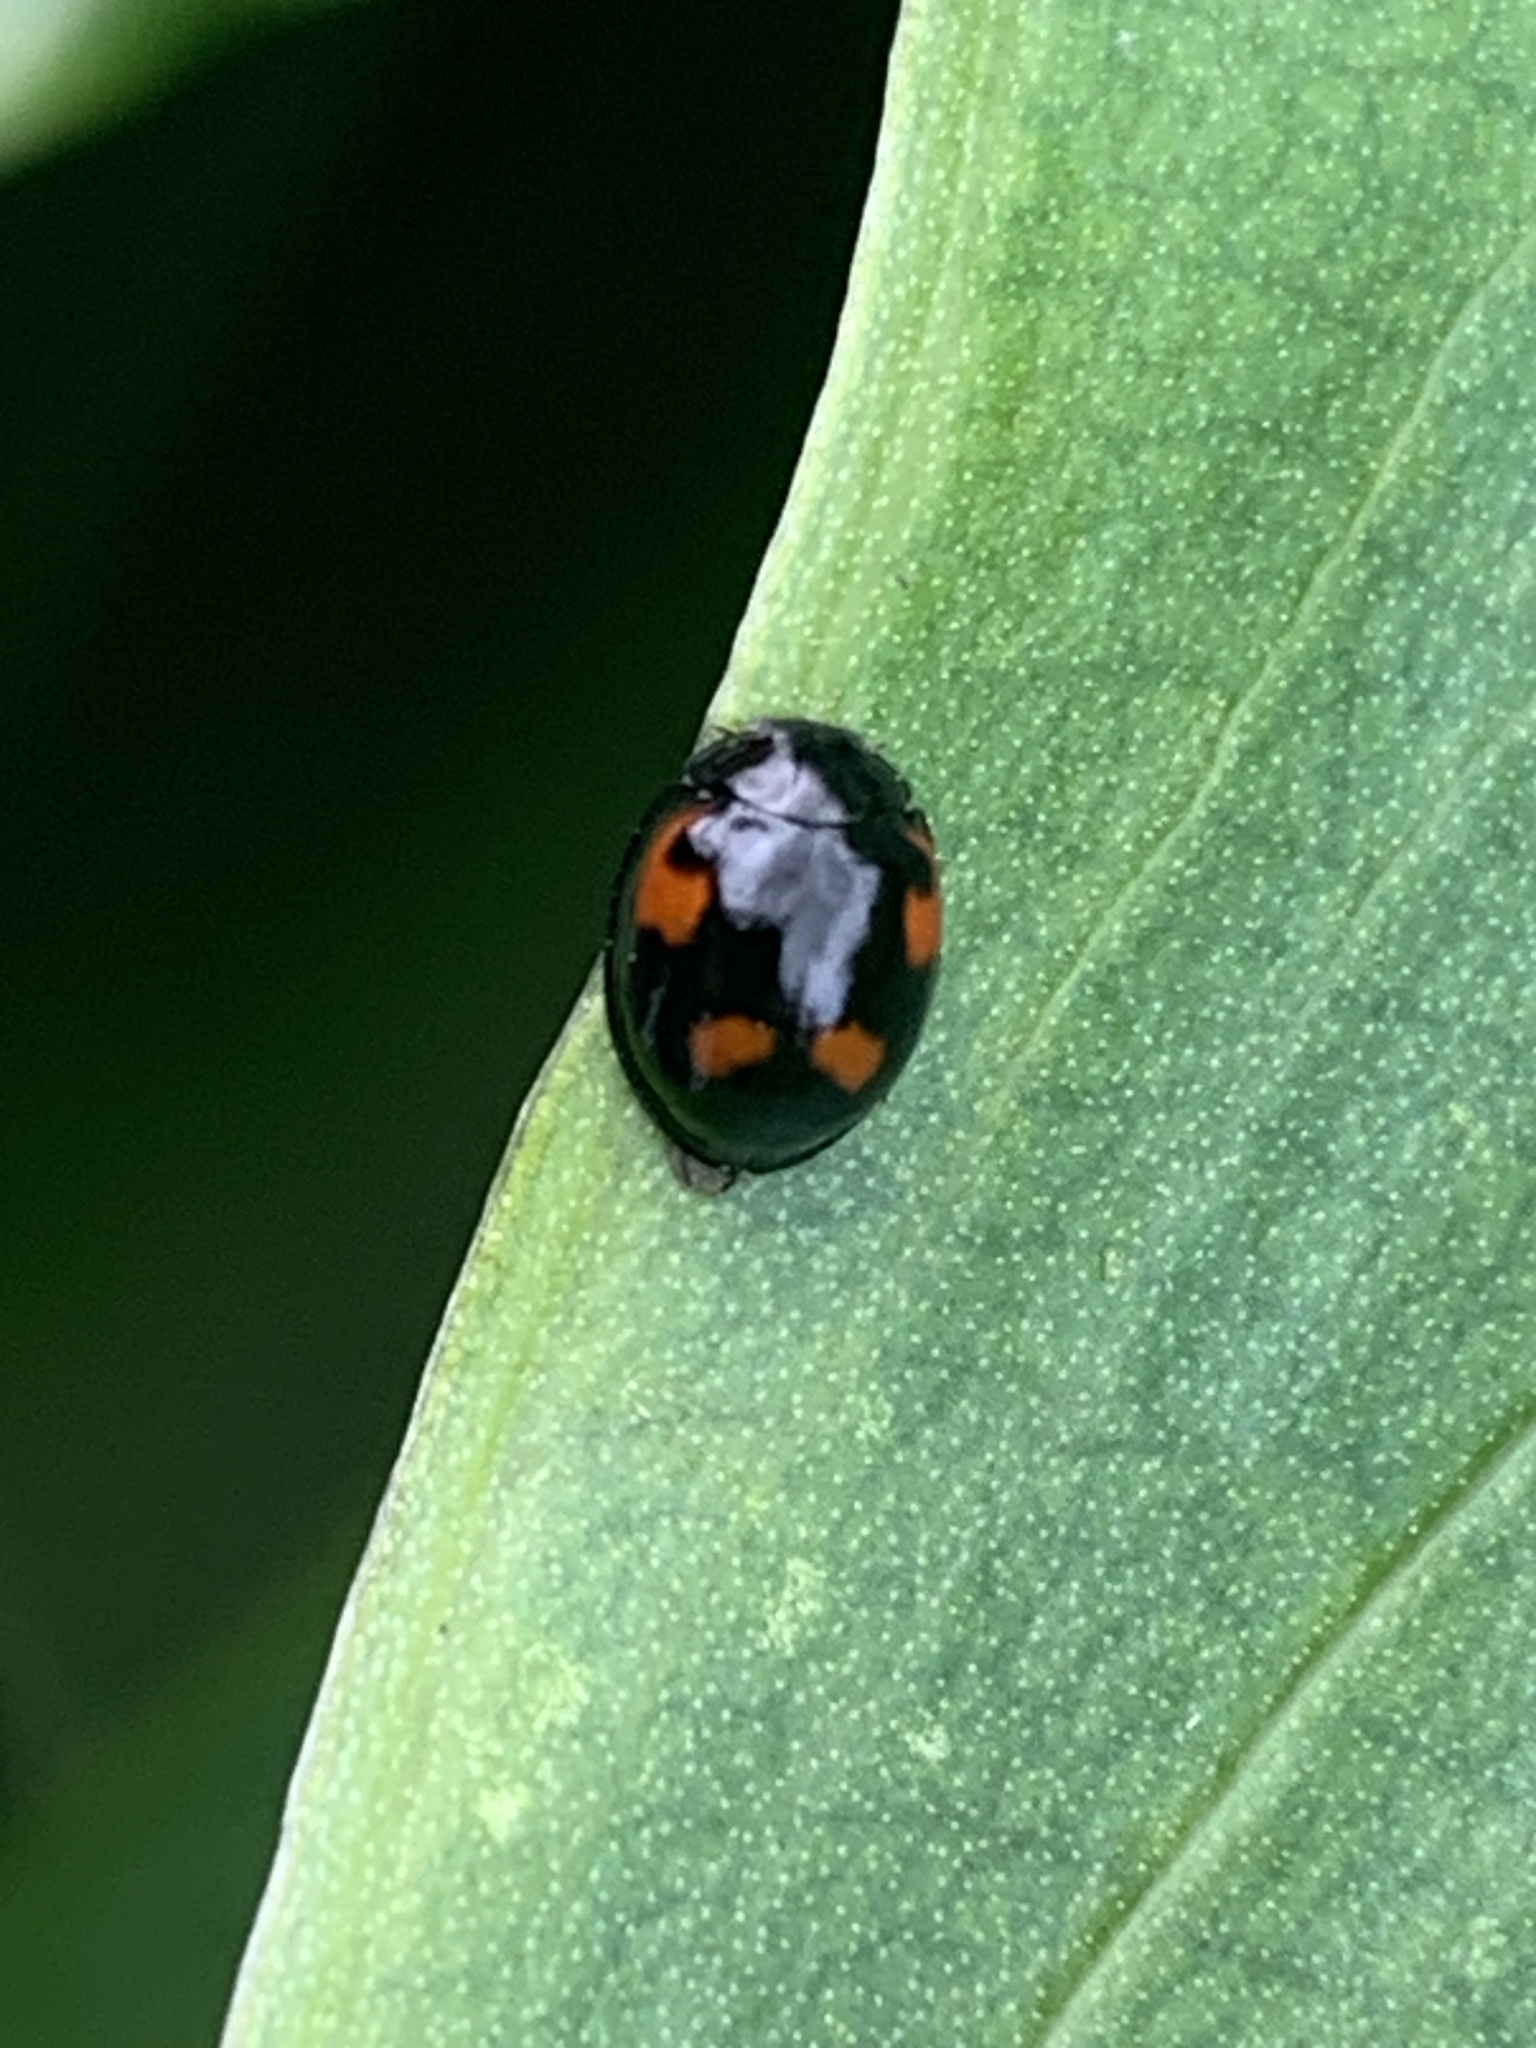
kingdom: Animalia
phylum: Arthropoda
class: Insecta
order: Coleoptera
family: Coccinellidae
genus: Brumus
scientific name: Brumus quadripustulatus
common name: Ladybird beetle
